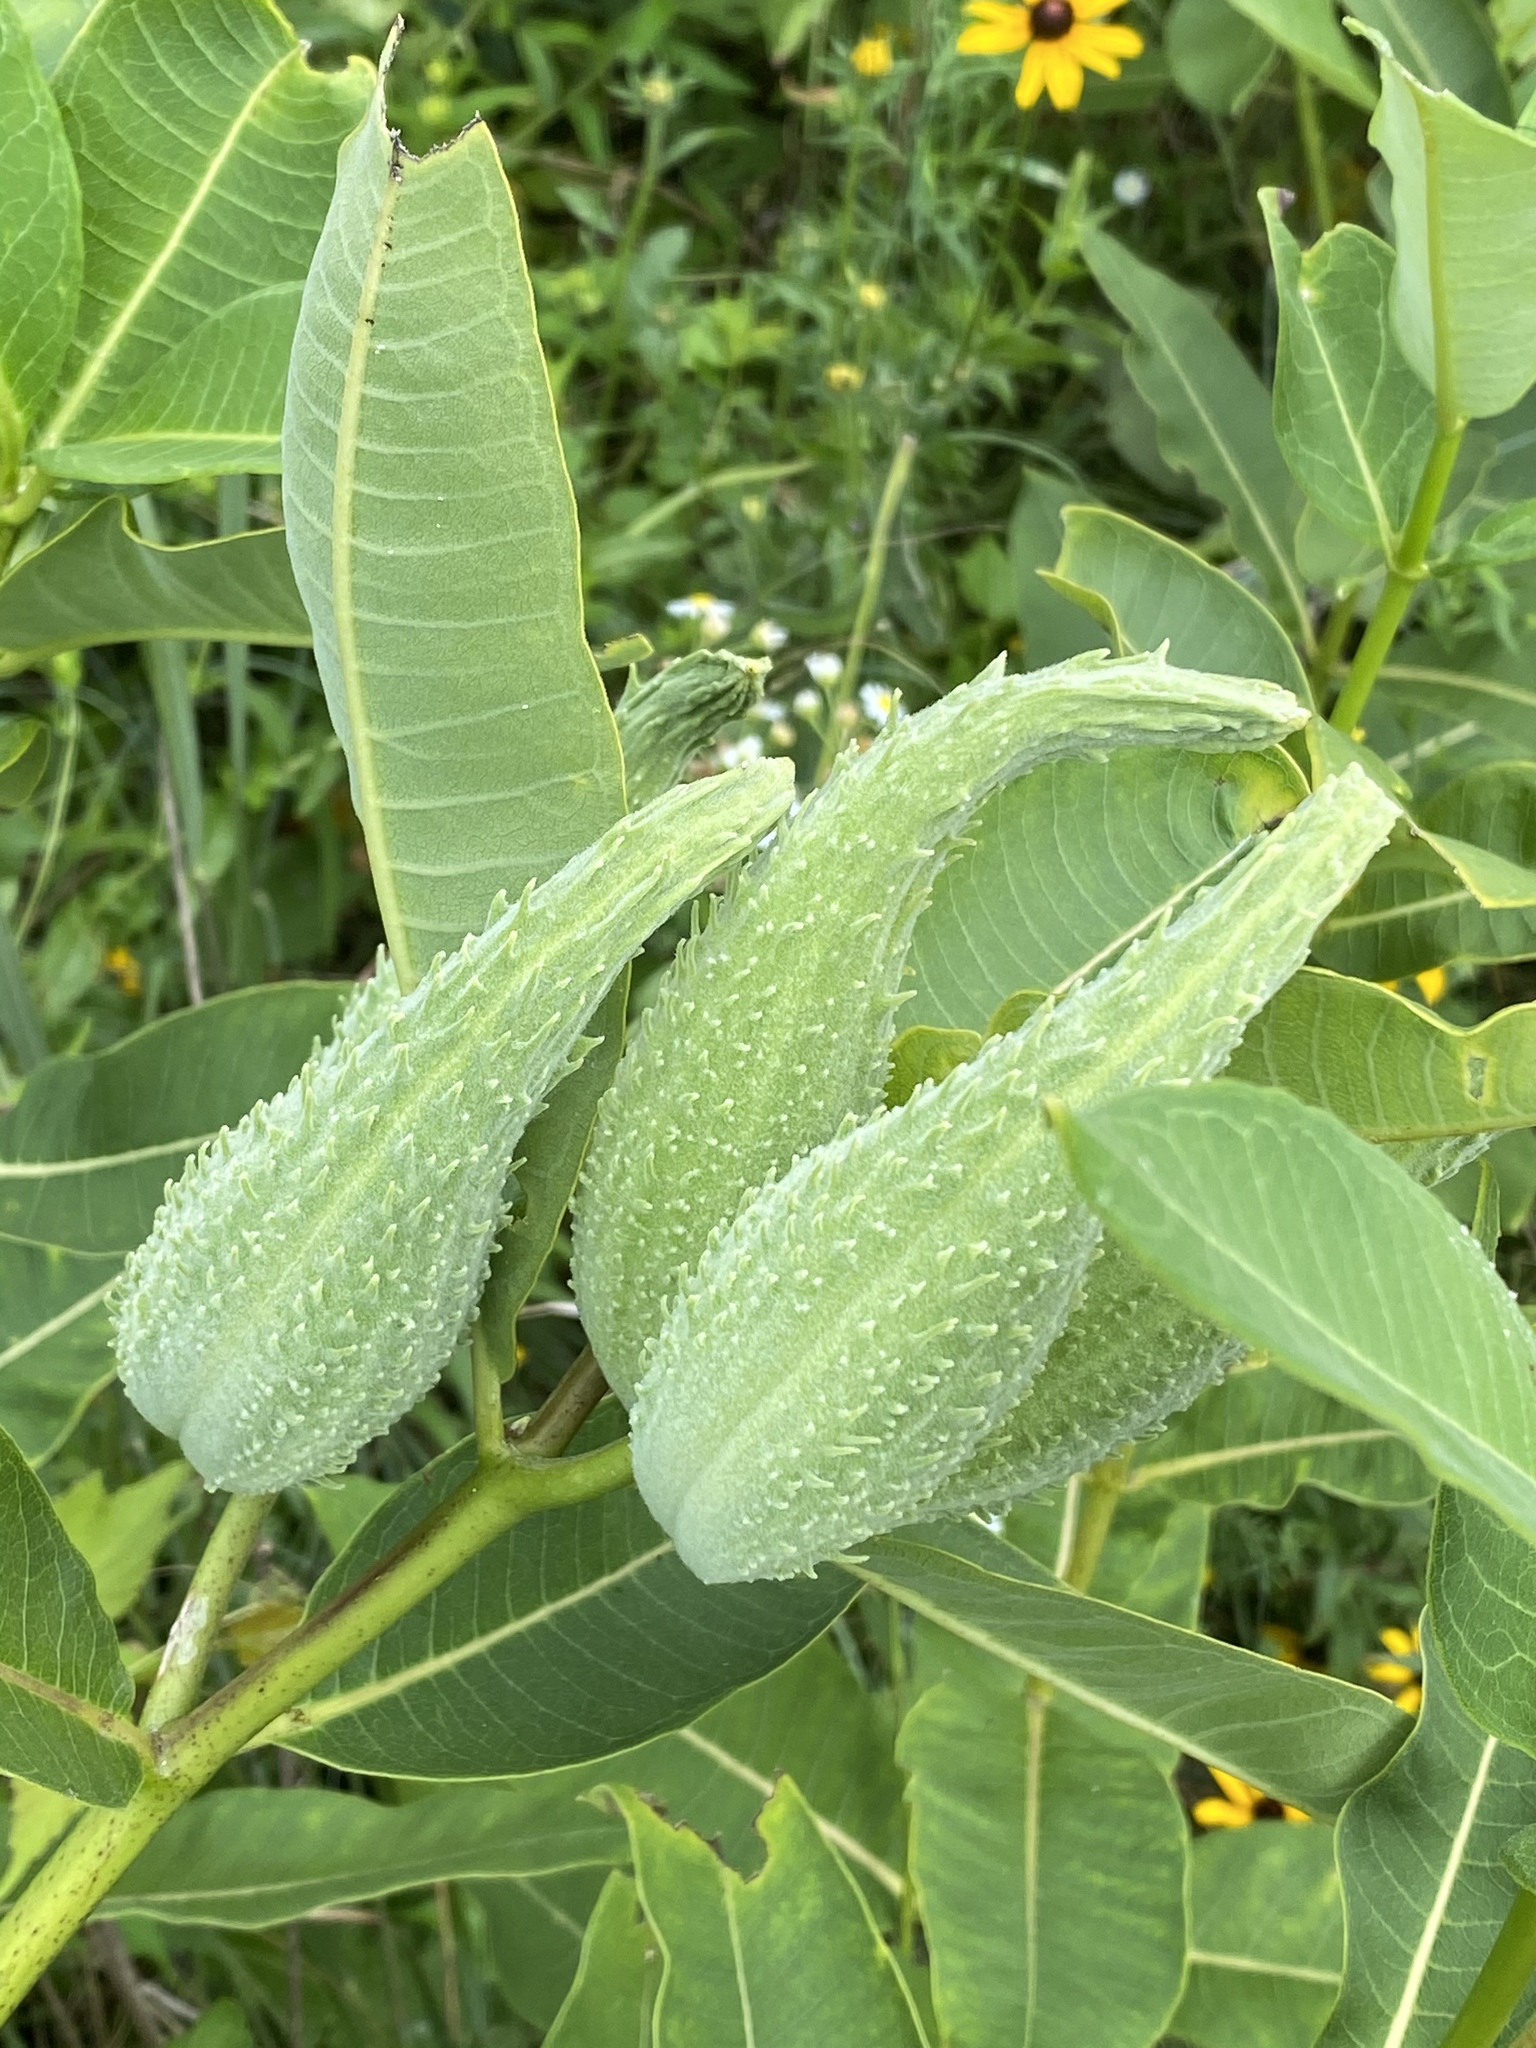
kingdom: Plantae
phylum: Tracheophyta
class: Magnoliopsida
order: Gentianales
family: Apocynaceae
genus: Asclepias
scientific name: Asclepias syriaca
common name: Common milkweed
